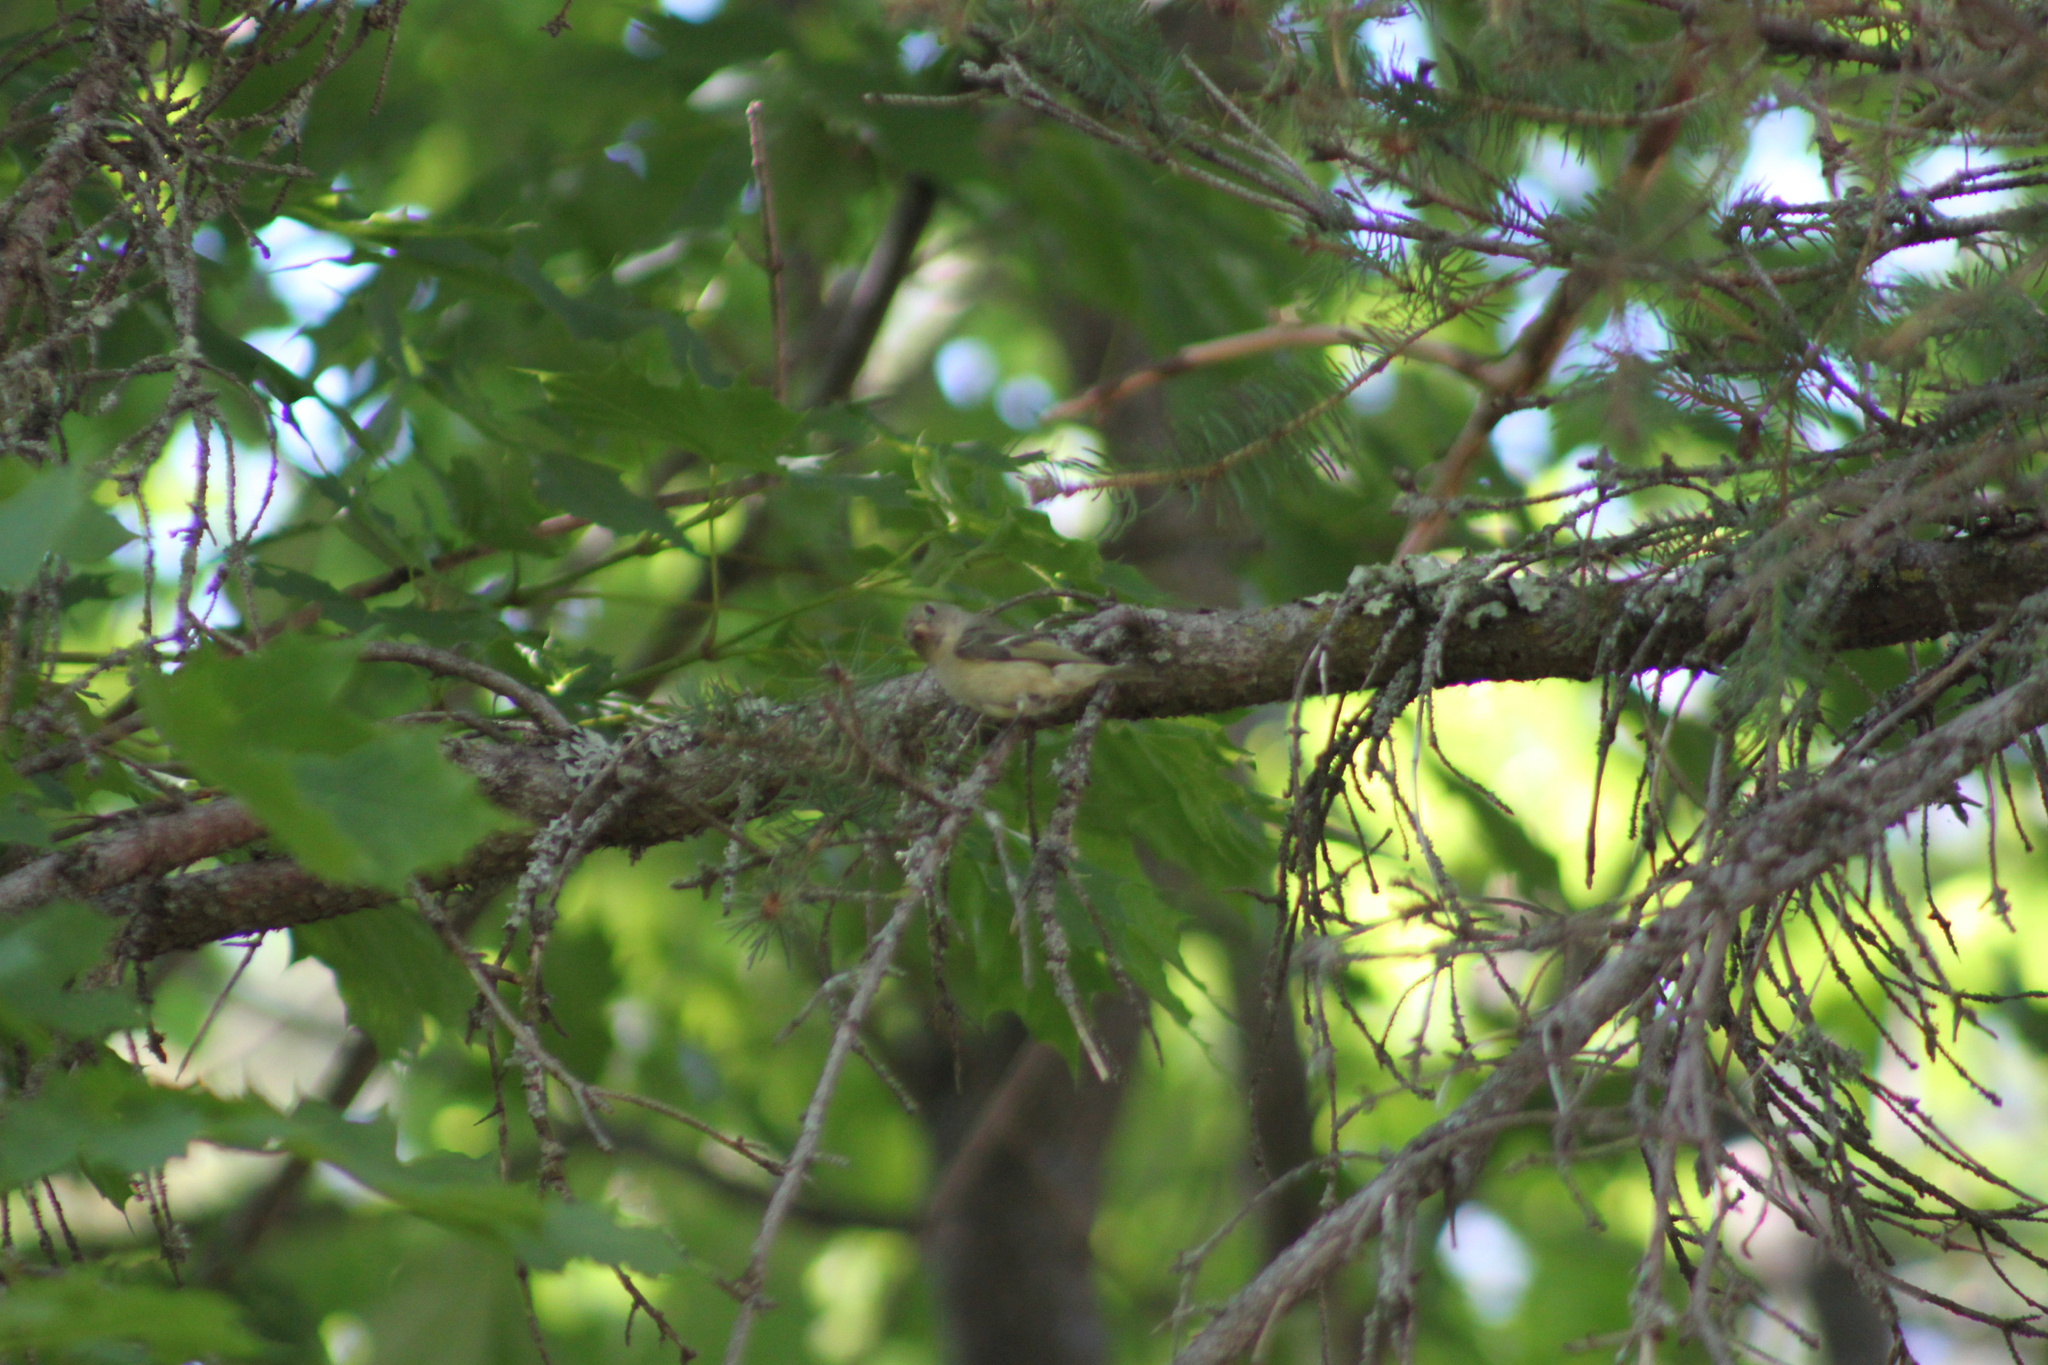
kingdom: Animalia
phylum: Chordata
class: Aves
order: Passeriformes
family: Regulidae
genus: Regulus
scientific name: Regulus calendula
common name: Ruby-crowned kinglet
